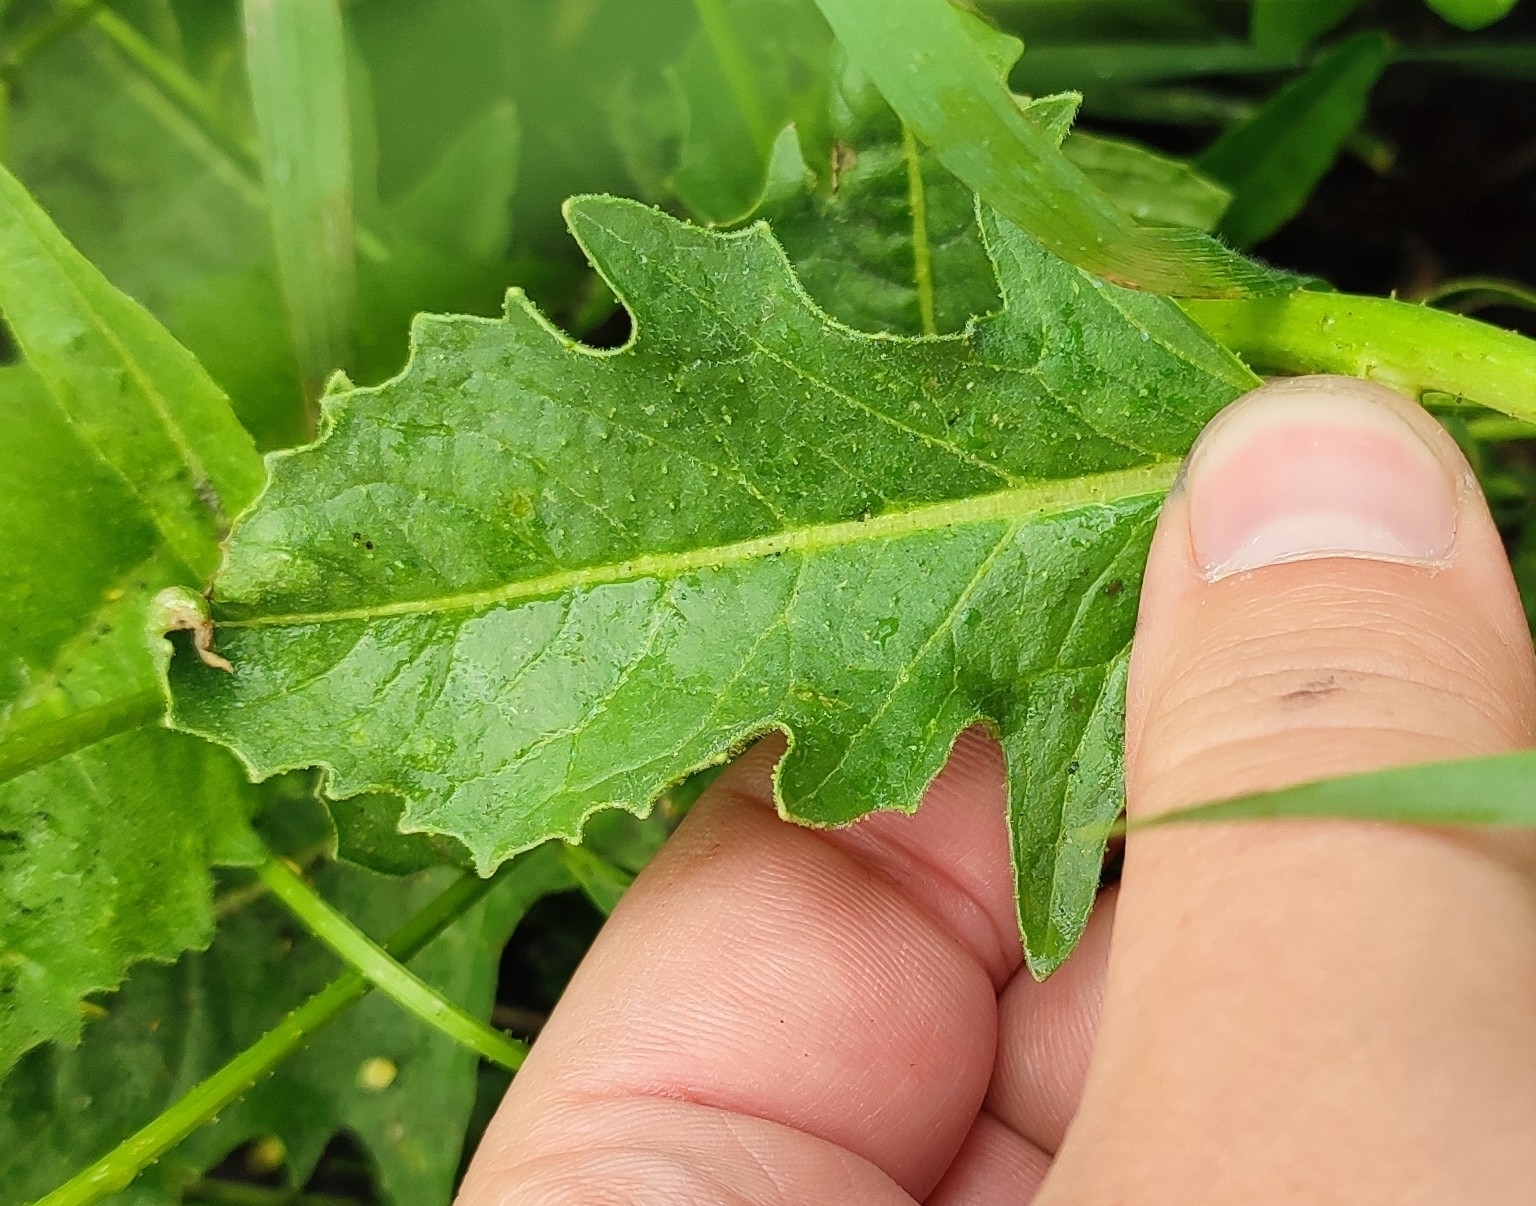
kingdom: Plantae
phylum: Tracheophyta
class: Magnoliopsida
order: Brassicales
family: Brassicaceae
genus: Bunias
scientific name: Bunias orientalis
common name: Warty-cabbage
